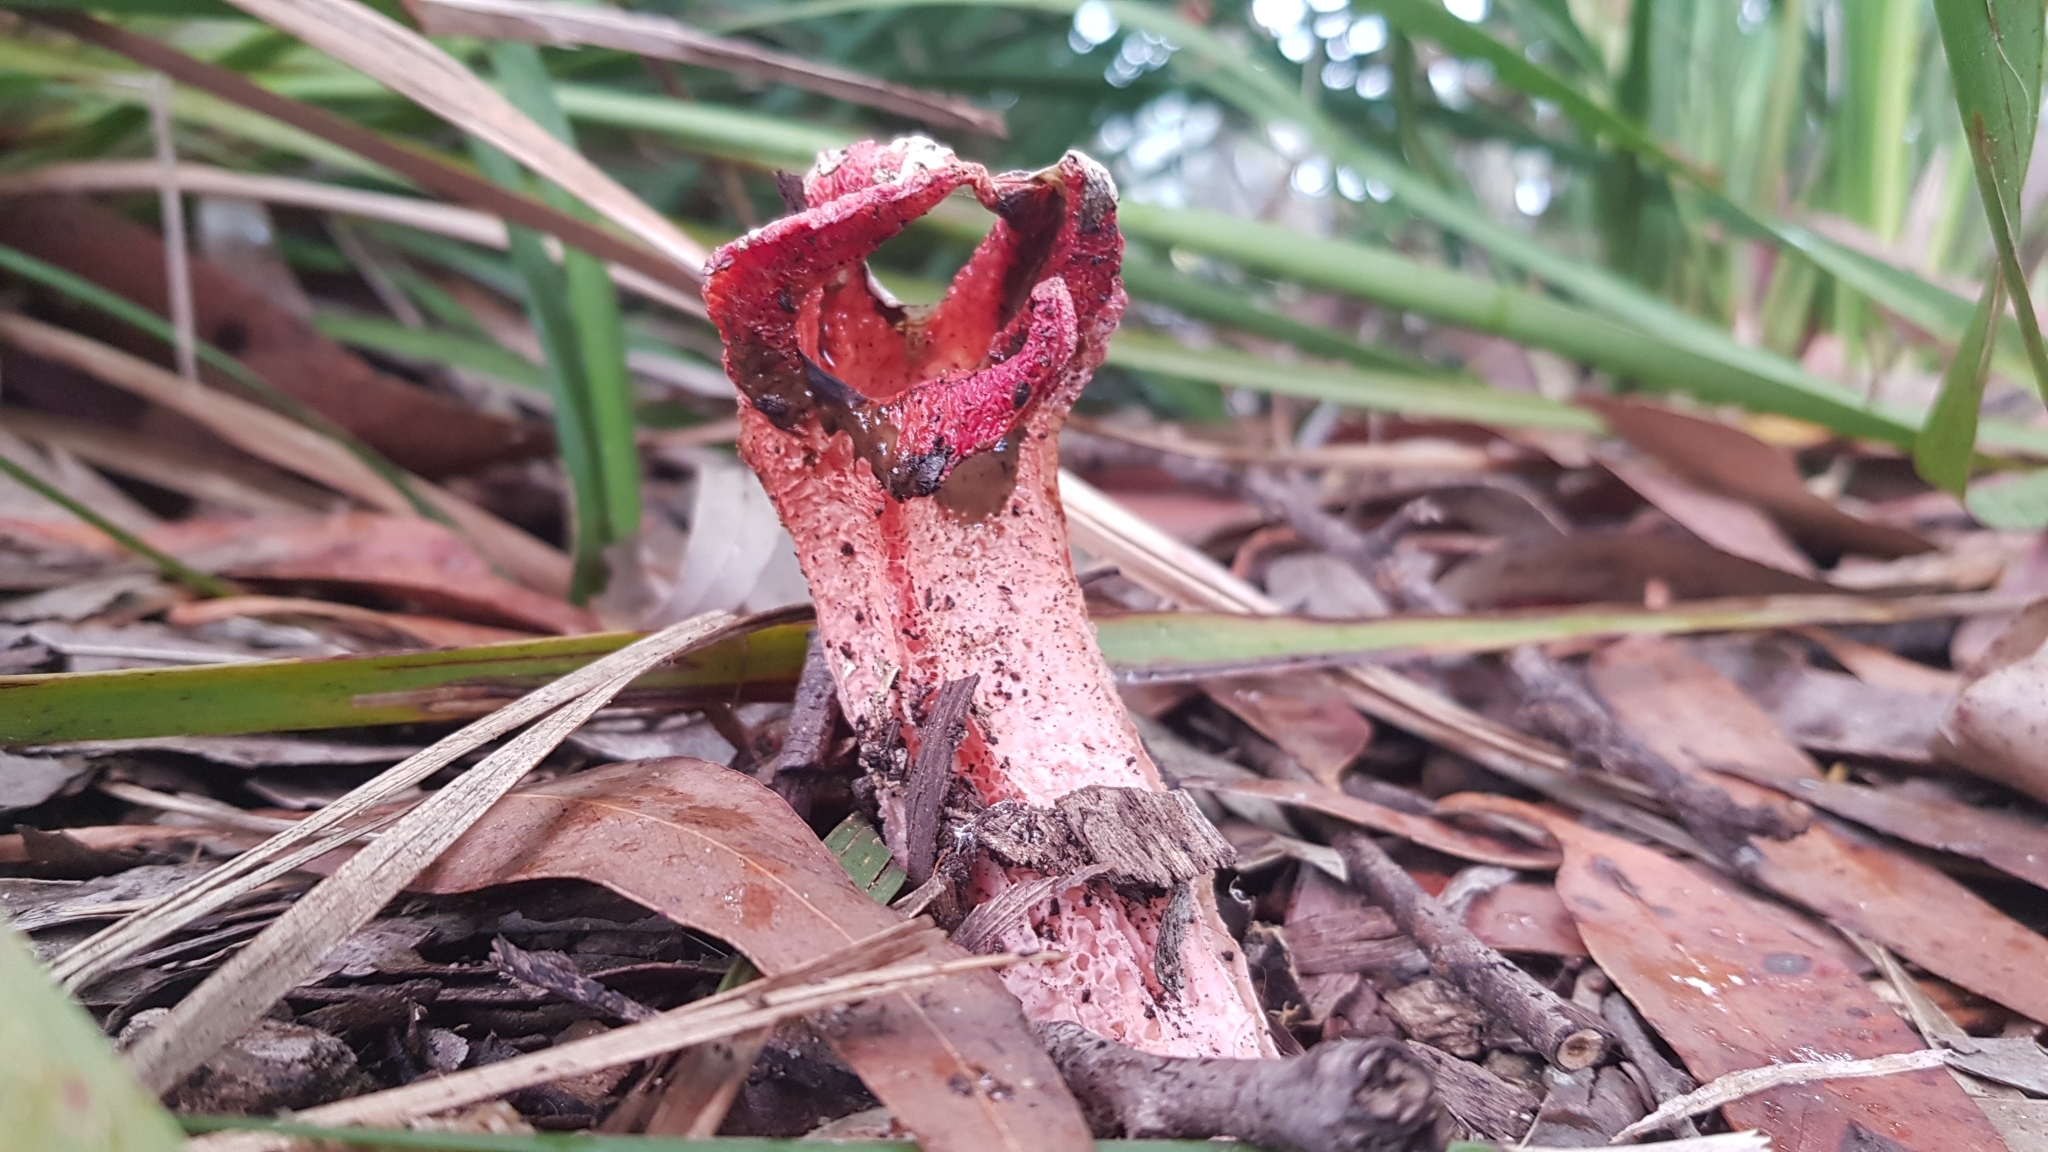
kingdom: Fungi
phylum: Basidiomycota
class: Agaricomycetes
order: Phallales
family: Phallaceae
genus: Lysurus
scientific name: Lysurus mokusin
